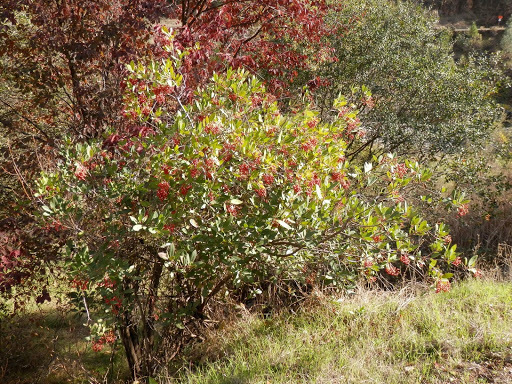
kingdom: Plantae
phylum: Tracheophyta
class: Magnoliopsida
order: Rosales
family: Rosaceae
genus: Heteromeles
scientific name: Heteromeles arbutifolia
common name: California-holly
